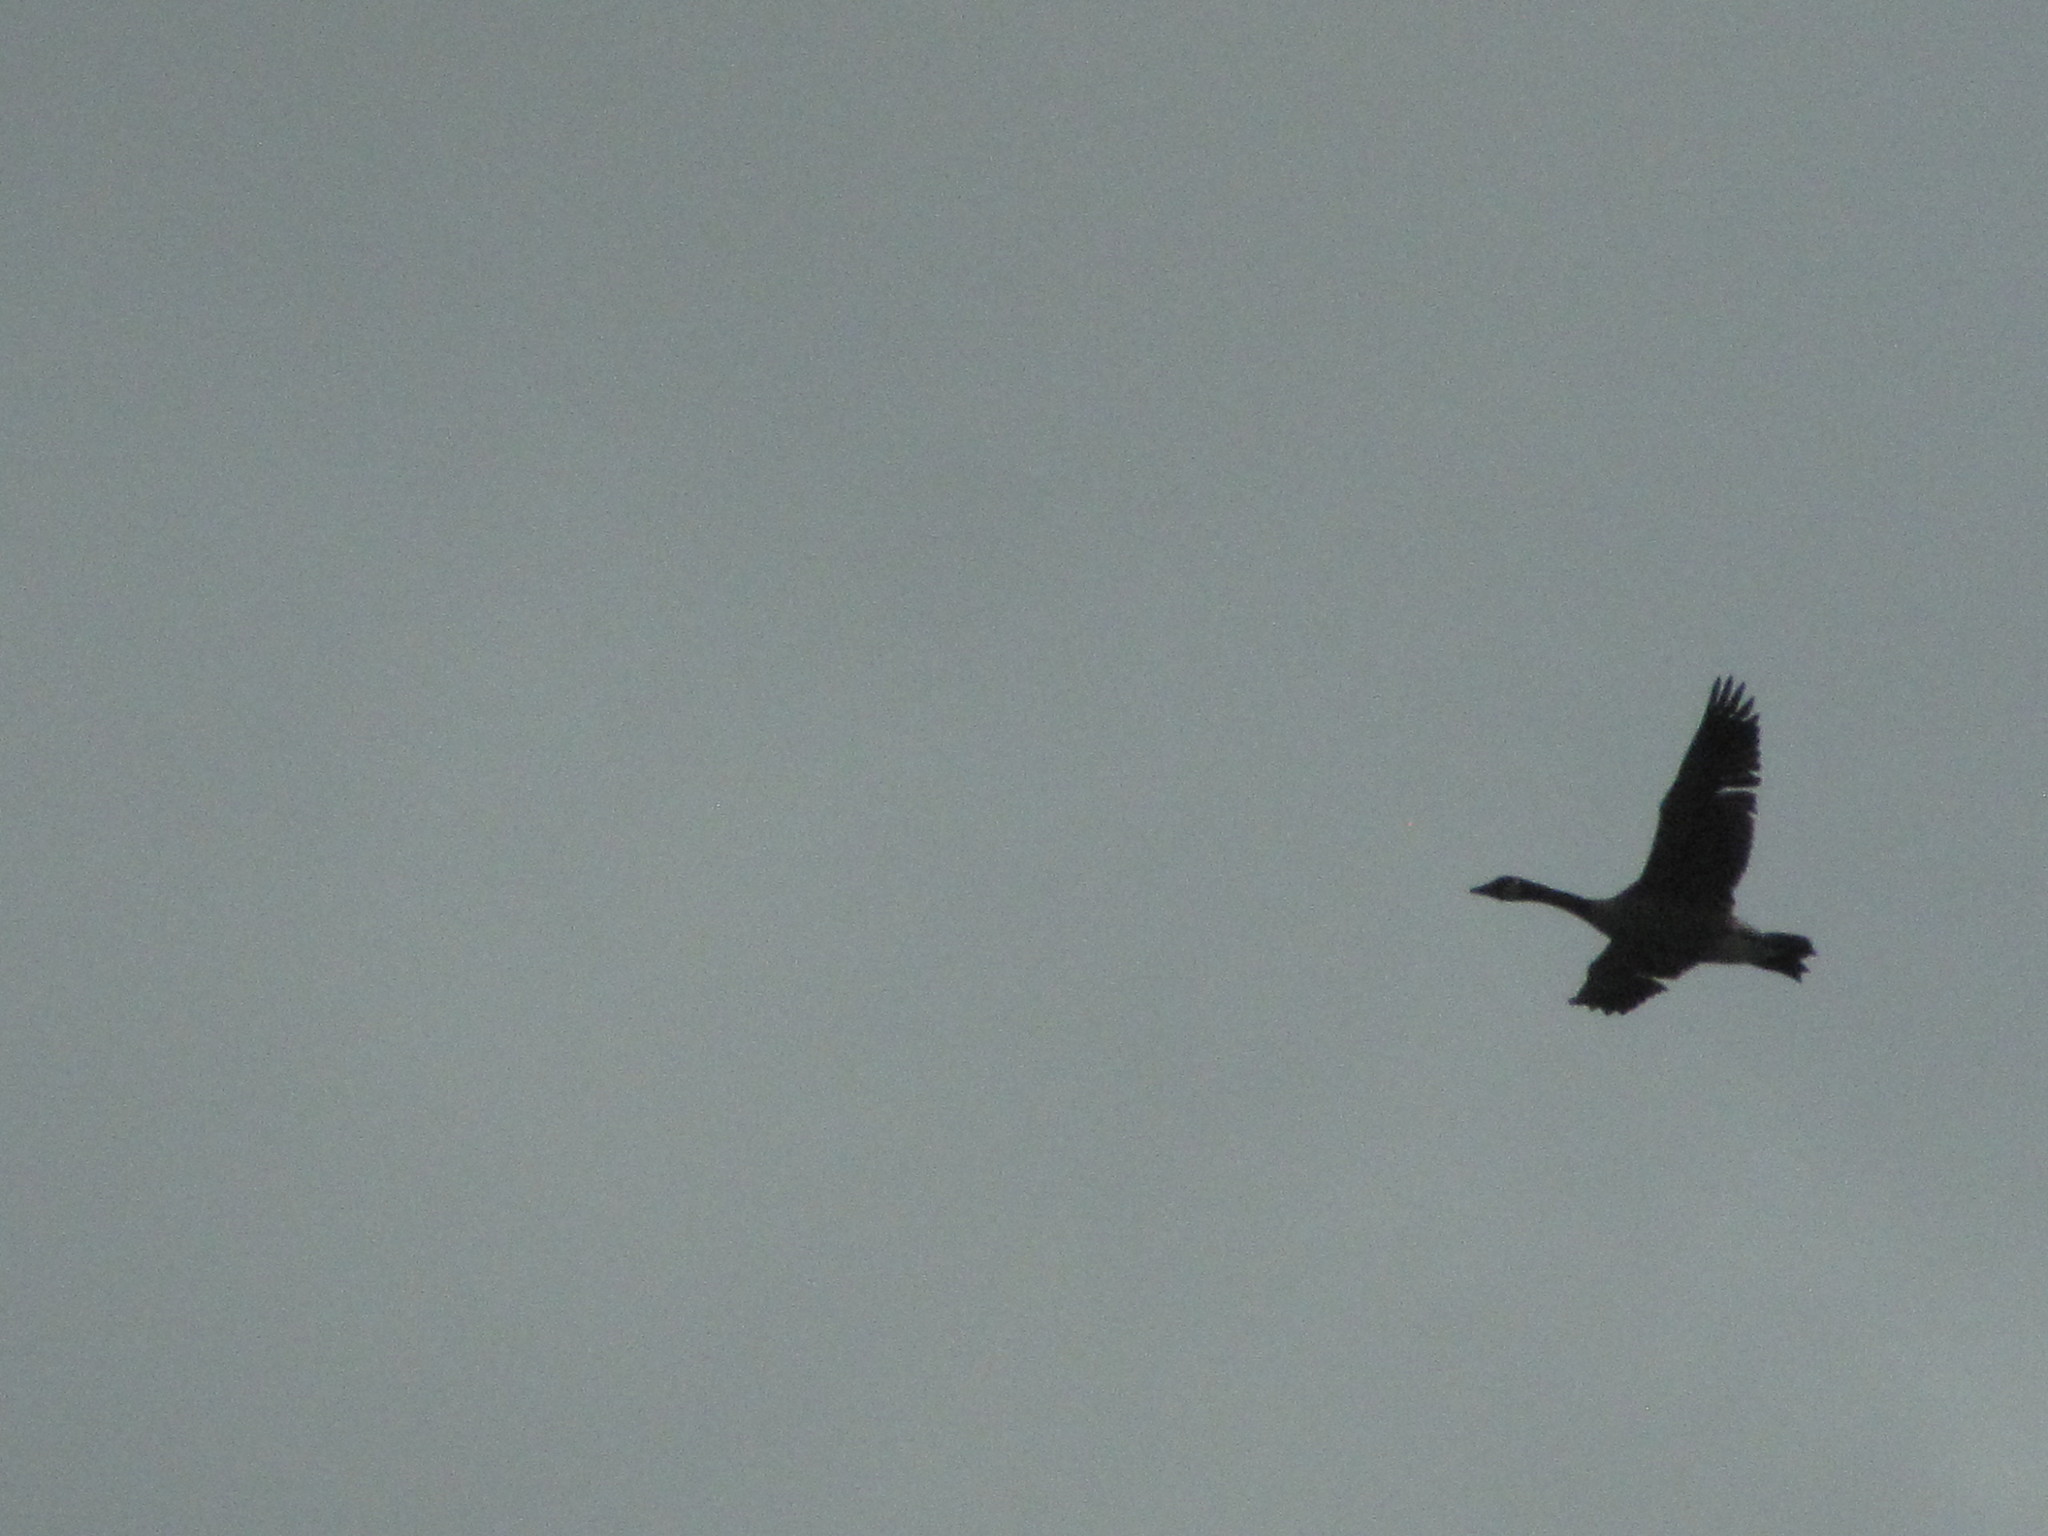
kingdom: Animalia
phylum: Chordata
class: Aves
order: Anseriformes
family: Anatidae
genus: Branta
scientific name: Branta canadensis
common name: Canada goose
